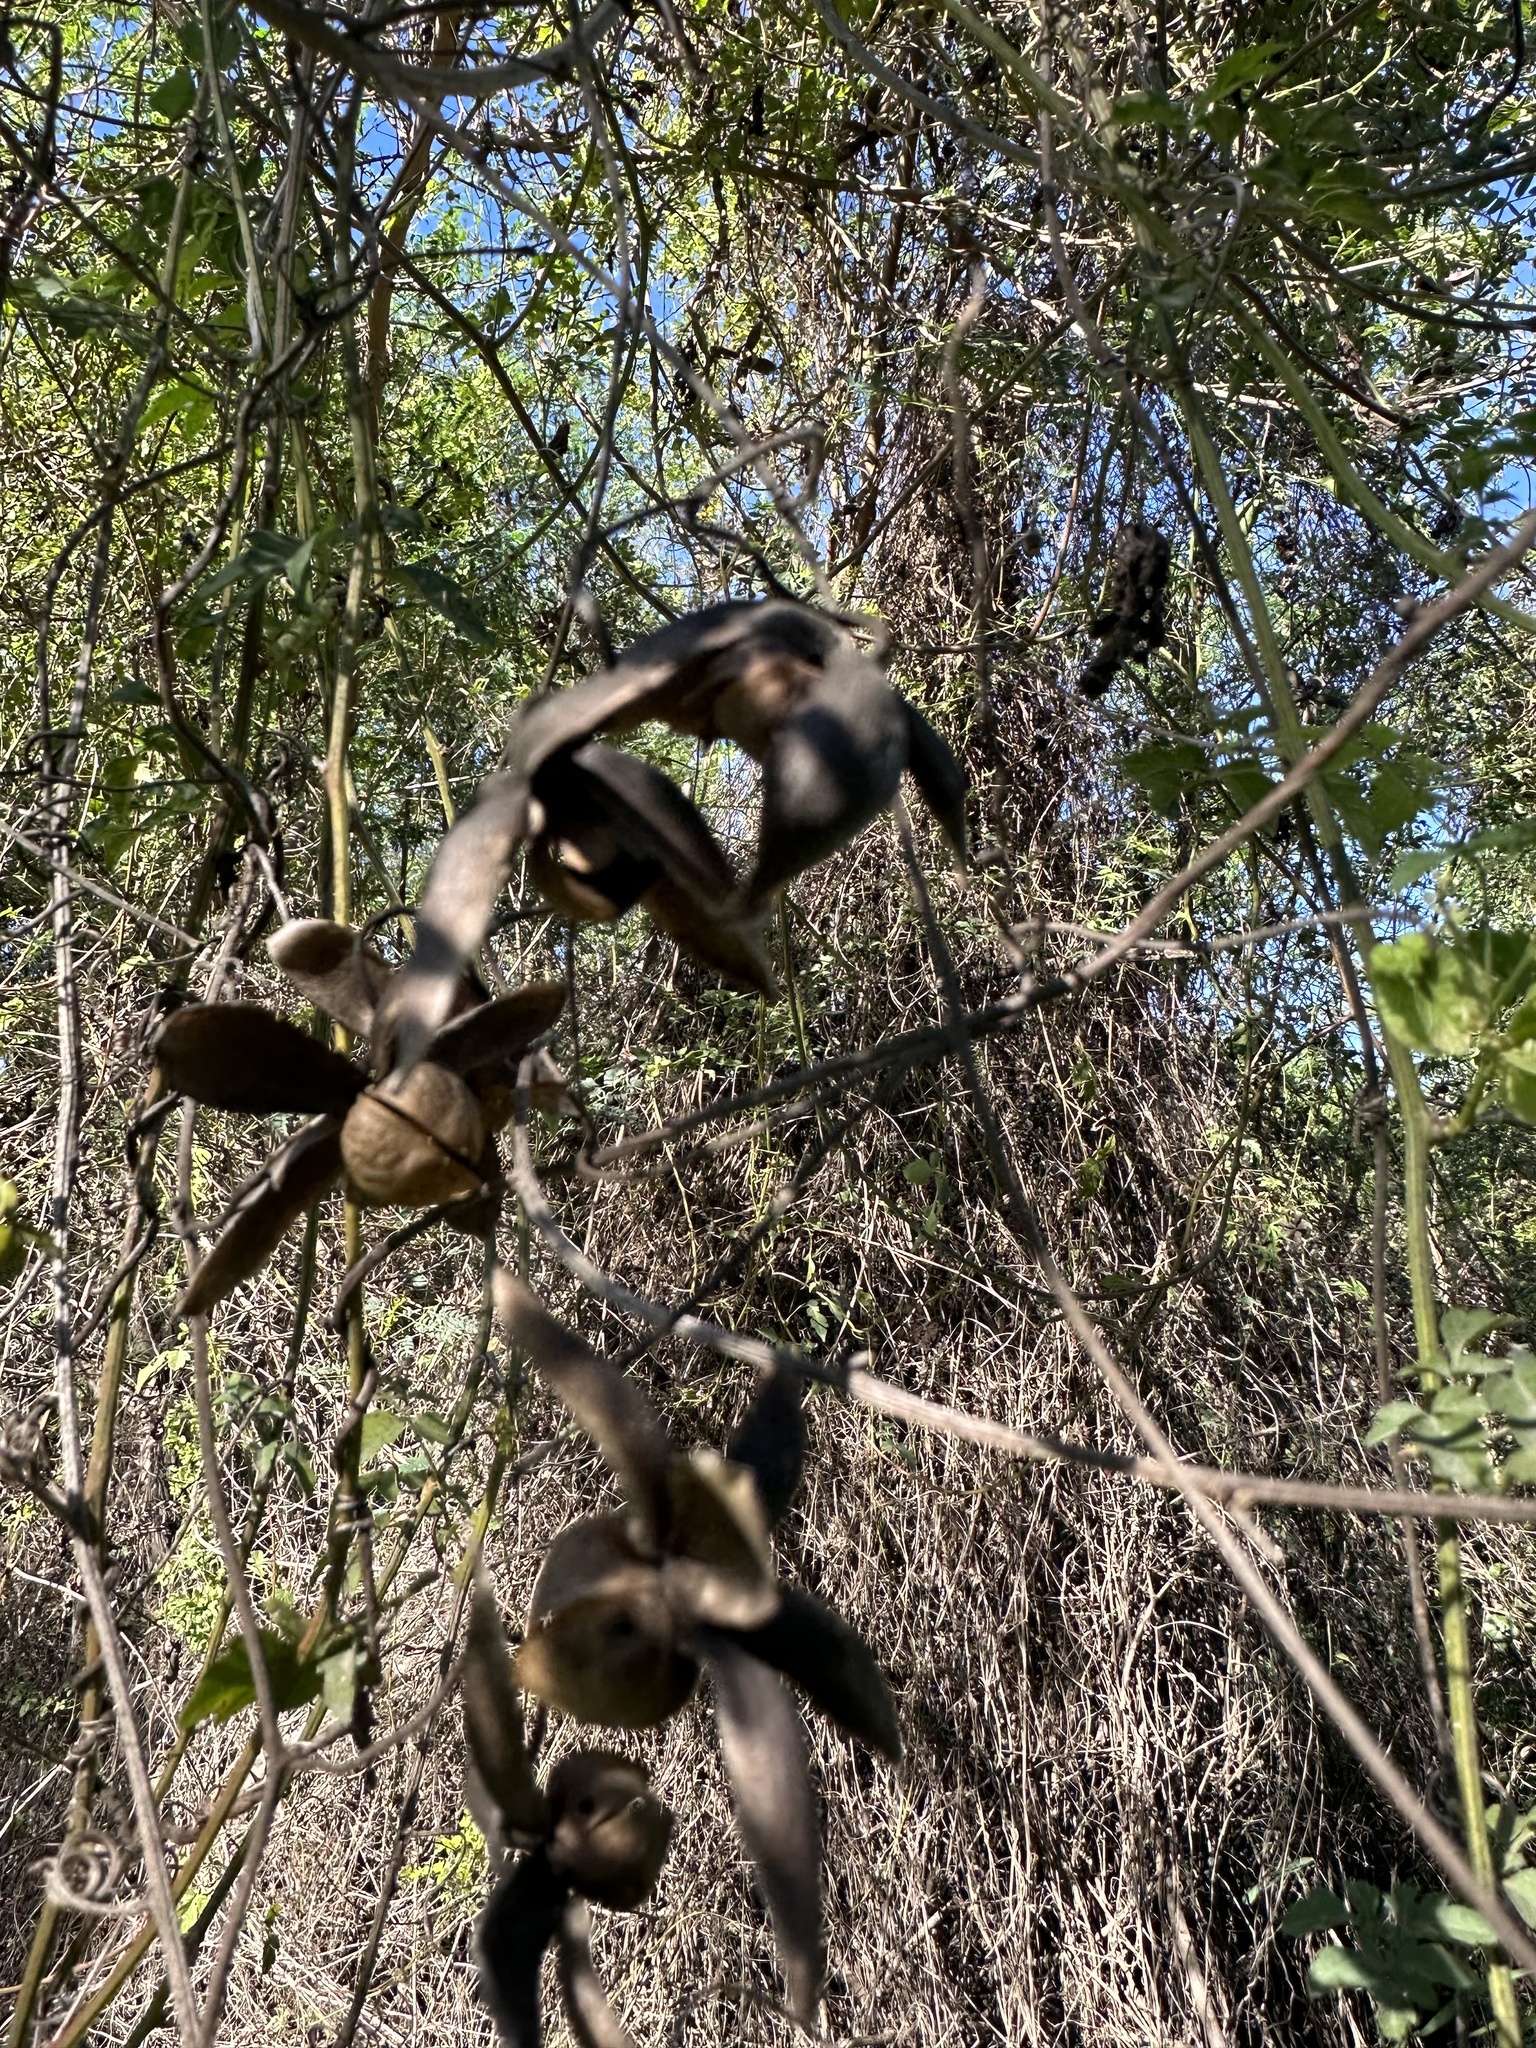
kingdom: Plantae
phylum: Tracheophyta
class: Magnoliopsida
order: Solanales
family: Convolvulaceae
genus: Distimake
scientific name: Distimake dissectus
